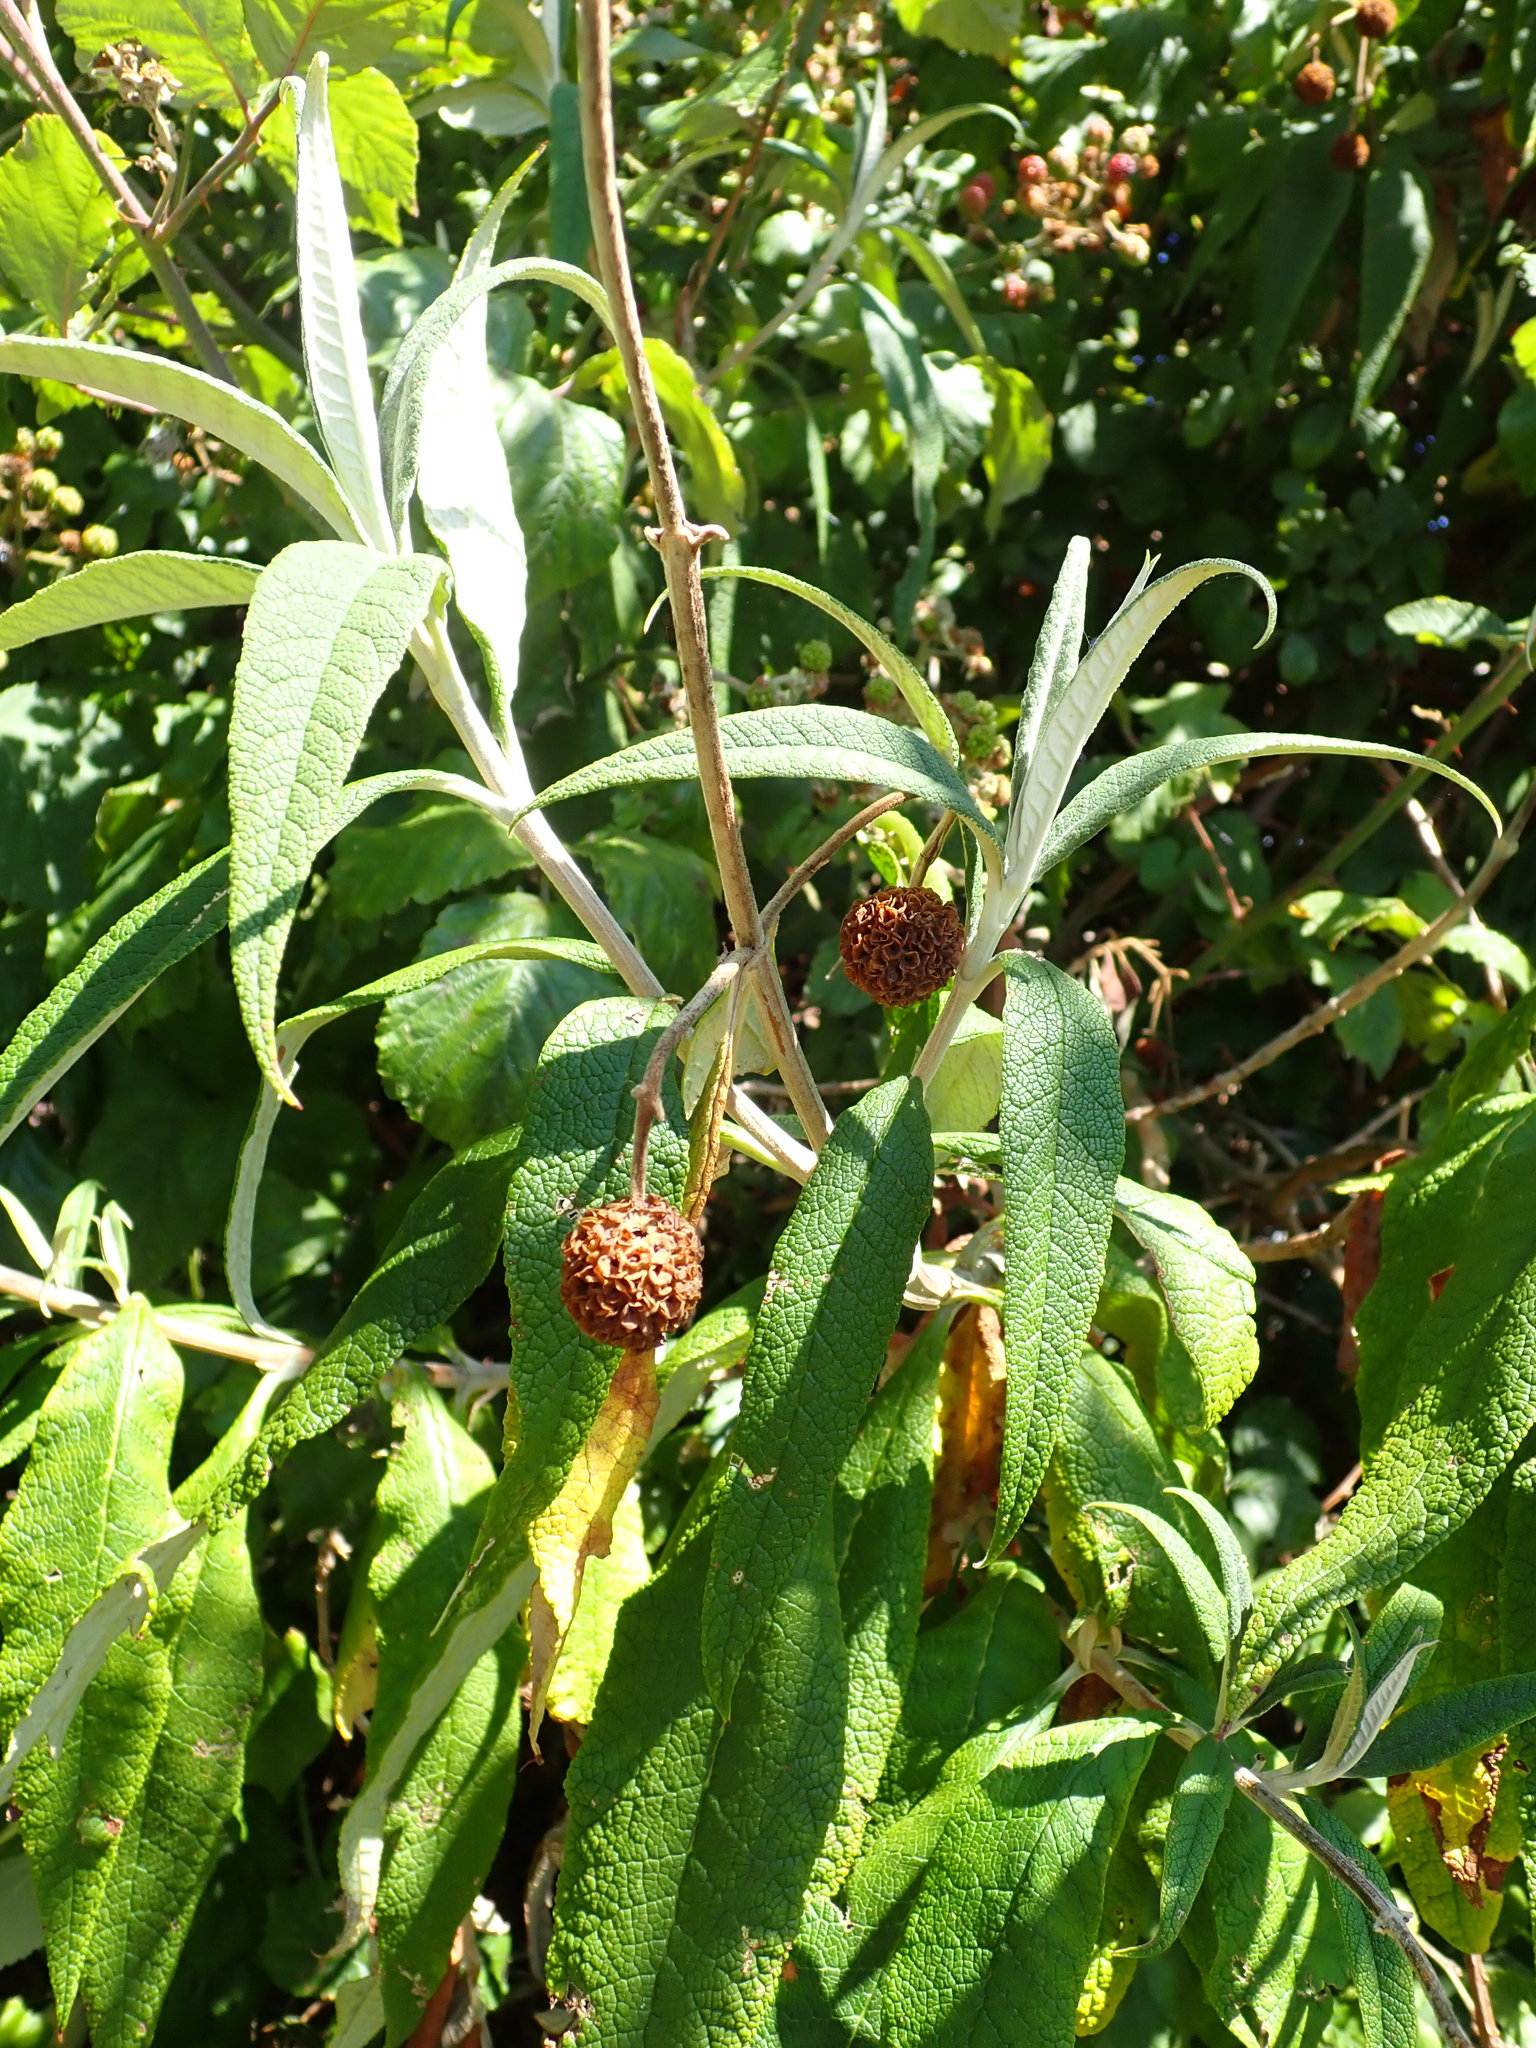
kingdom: Plantae
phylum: Tracheophyta
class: Magnoliopsida
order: Lamiales
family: Scrophulariaceae
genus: Buddleja
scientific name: Buddleja globosa
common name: Orange-ball-tree
